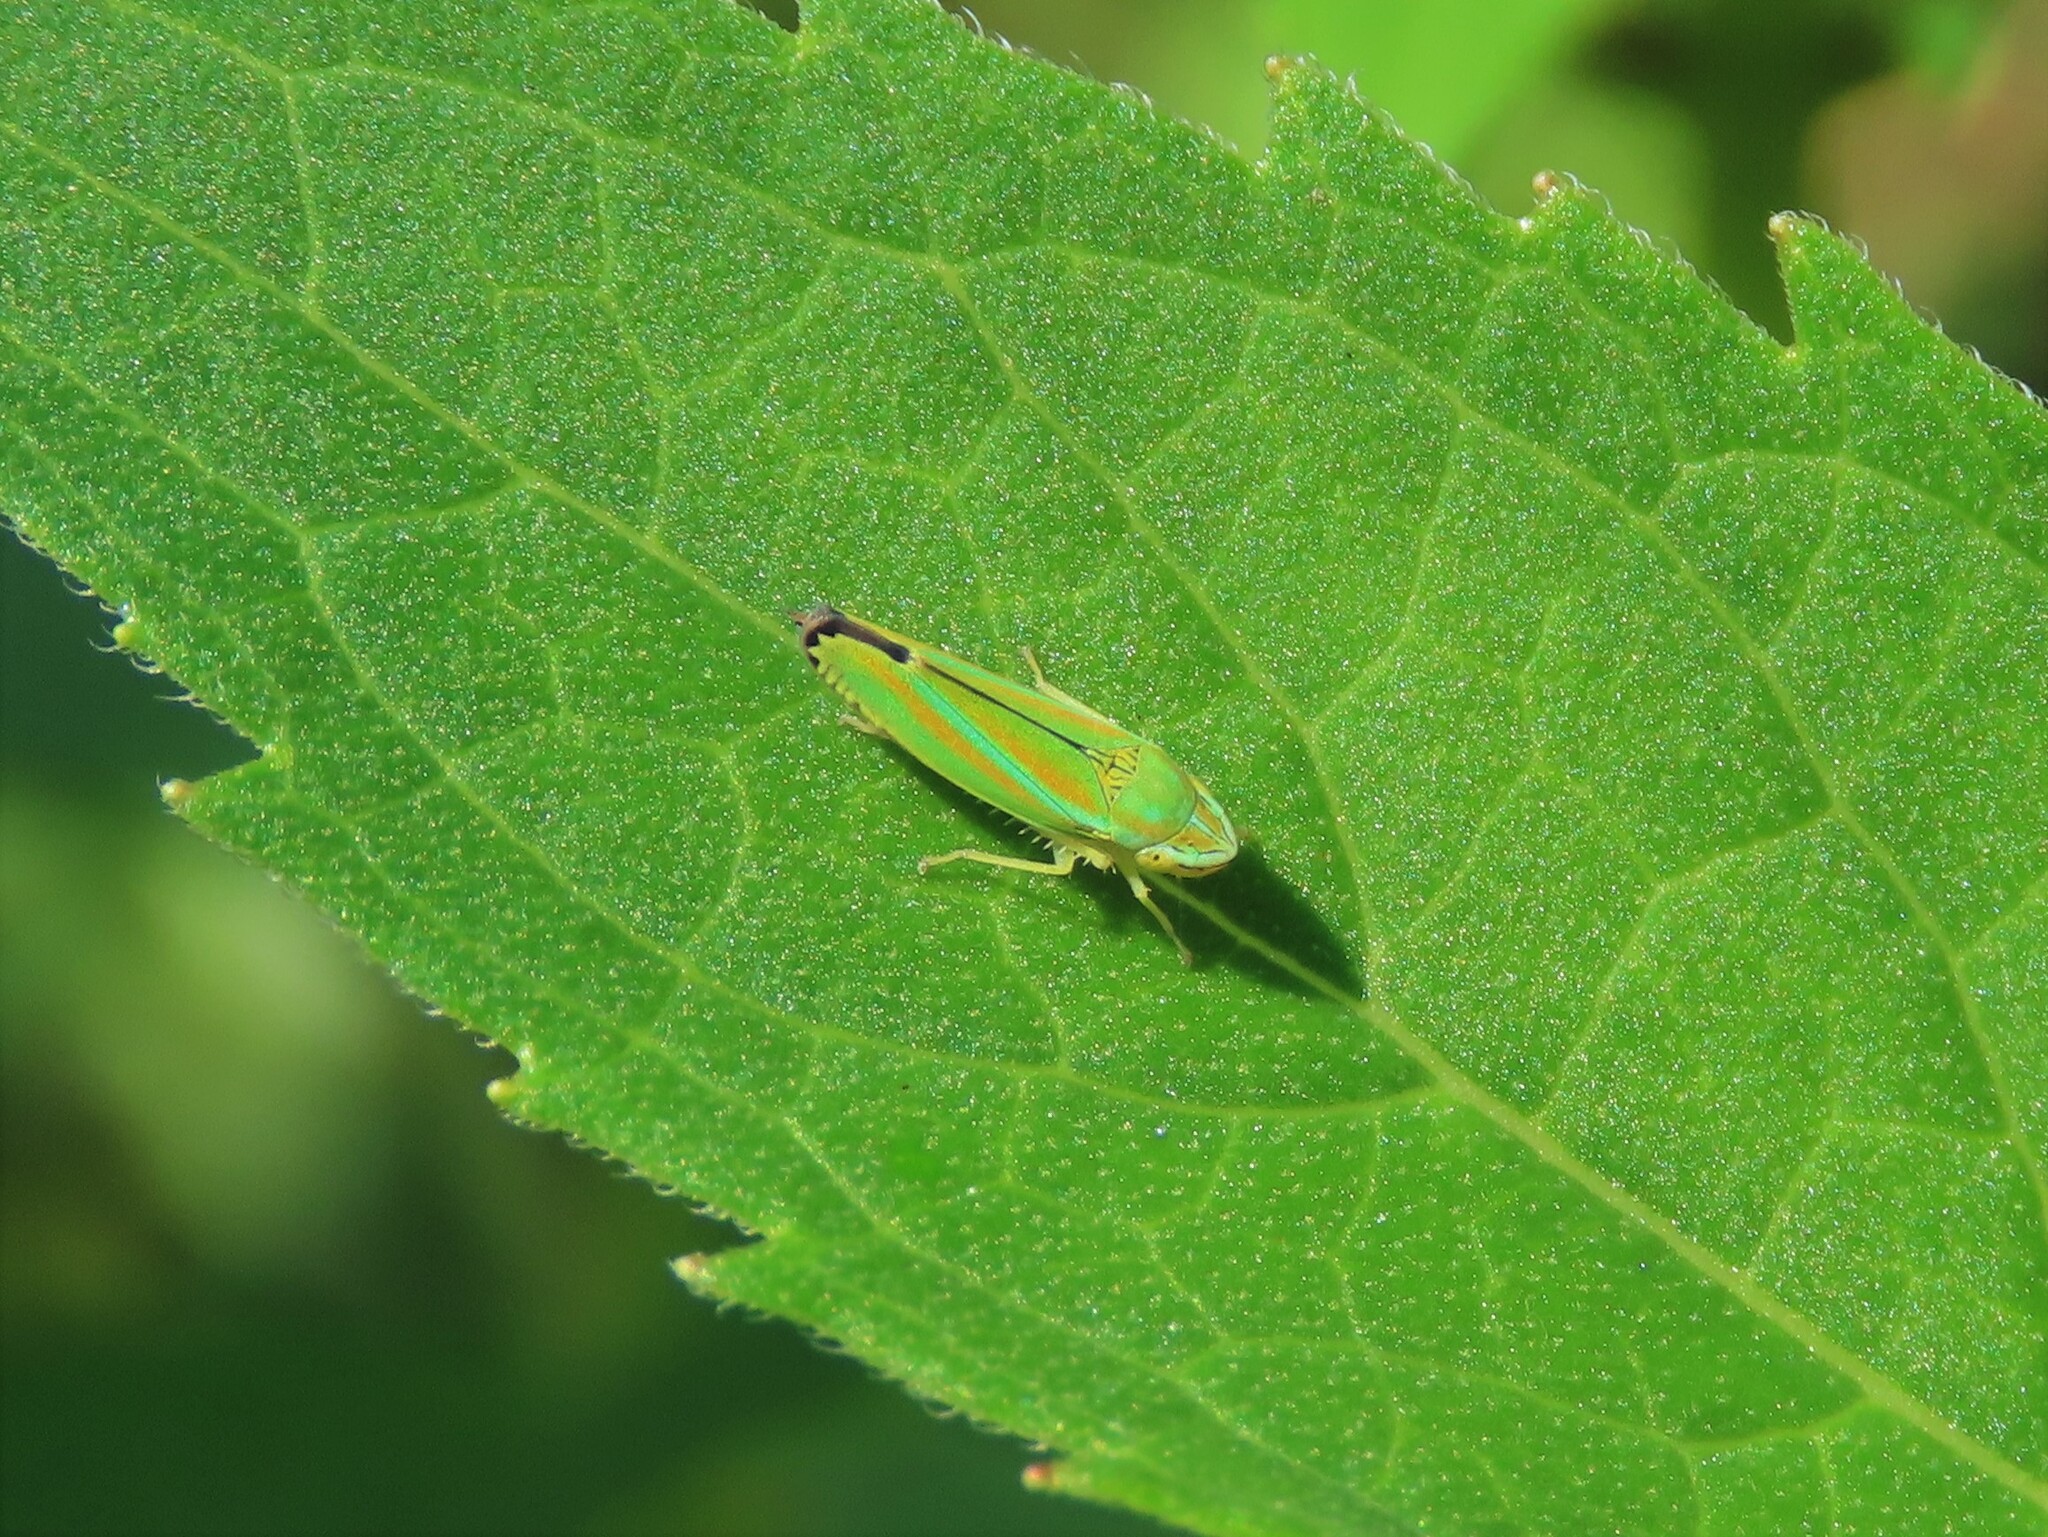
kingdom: Animalia
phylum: Arthropoda
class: Insecta
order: Hemiptera
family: Cicadellidae
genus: Graphocephala
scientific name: Graphocephala versuta
